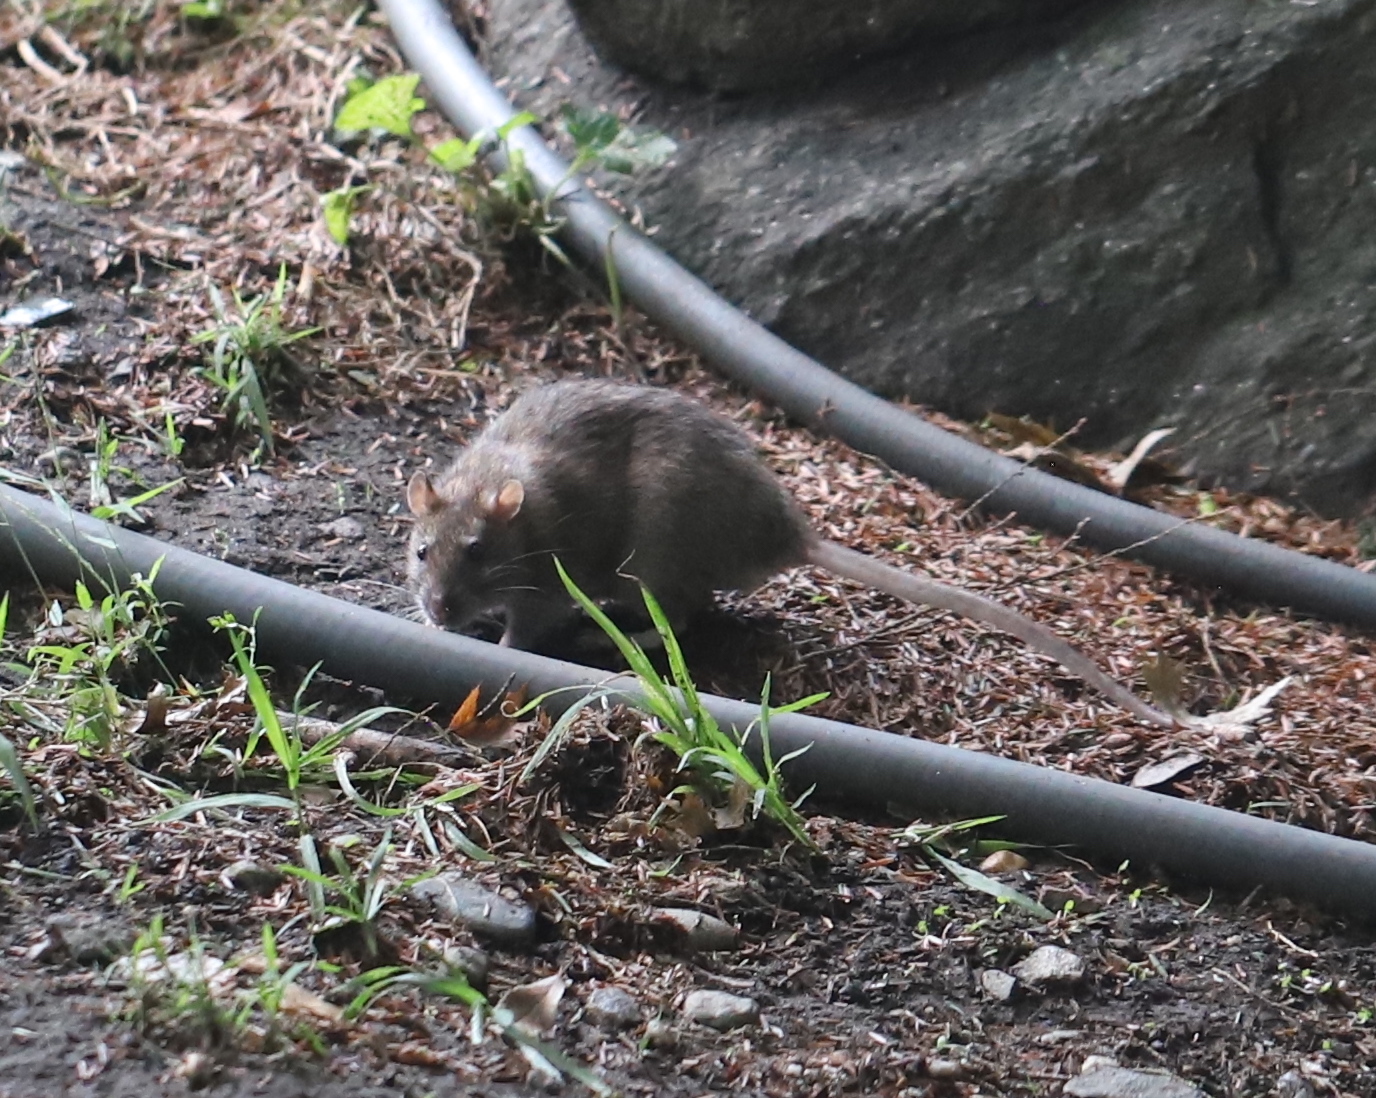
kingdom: Animalia
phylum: Chordata
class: Mammalia
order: Rodentia
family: Muridae
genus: Rattus
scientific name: Rattus norvegicus
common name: Brown rat
